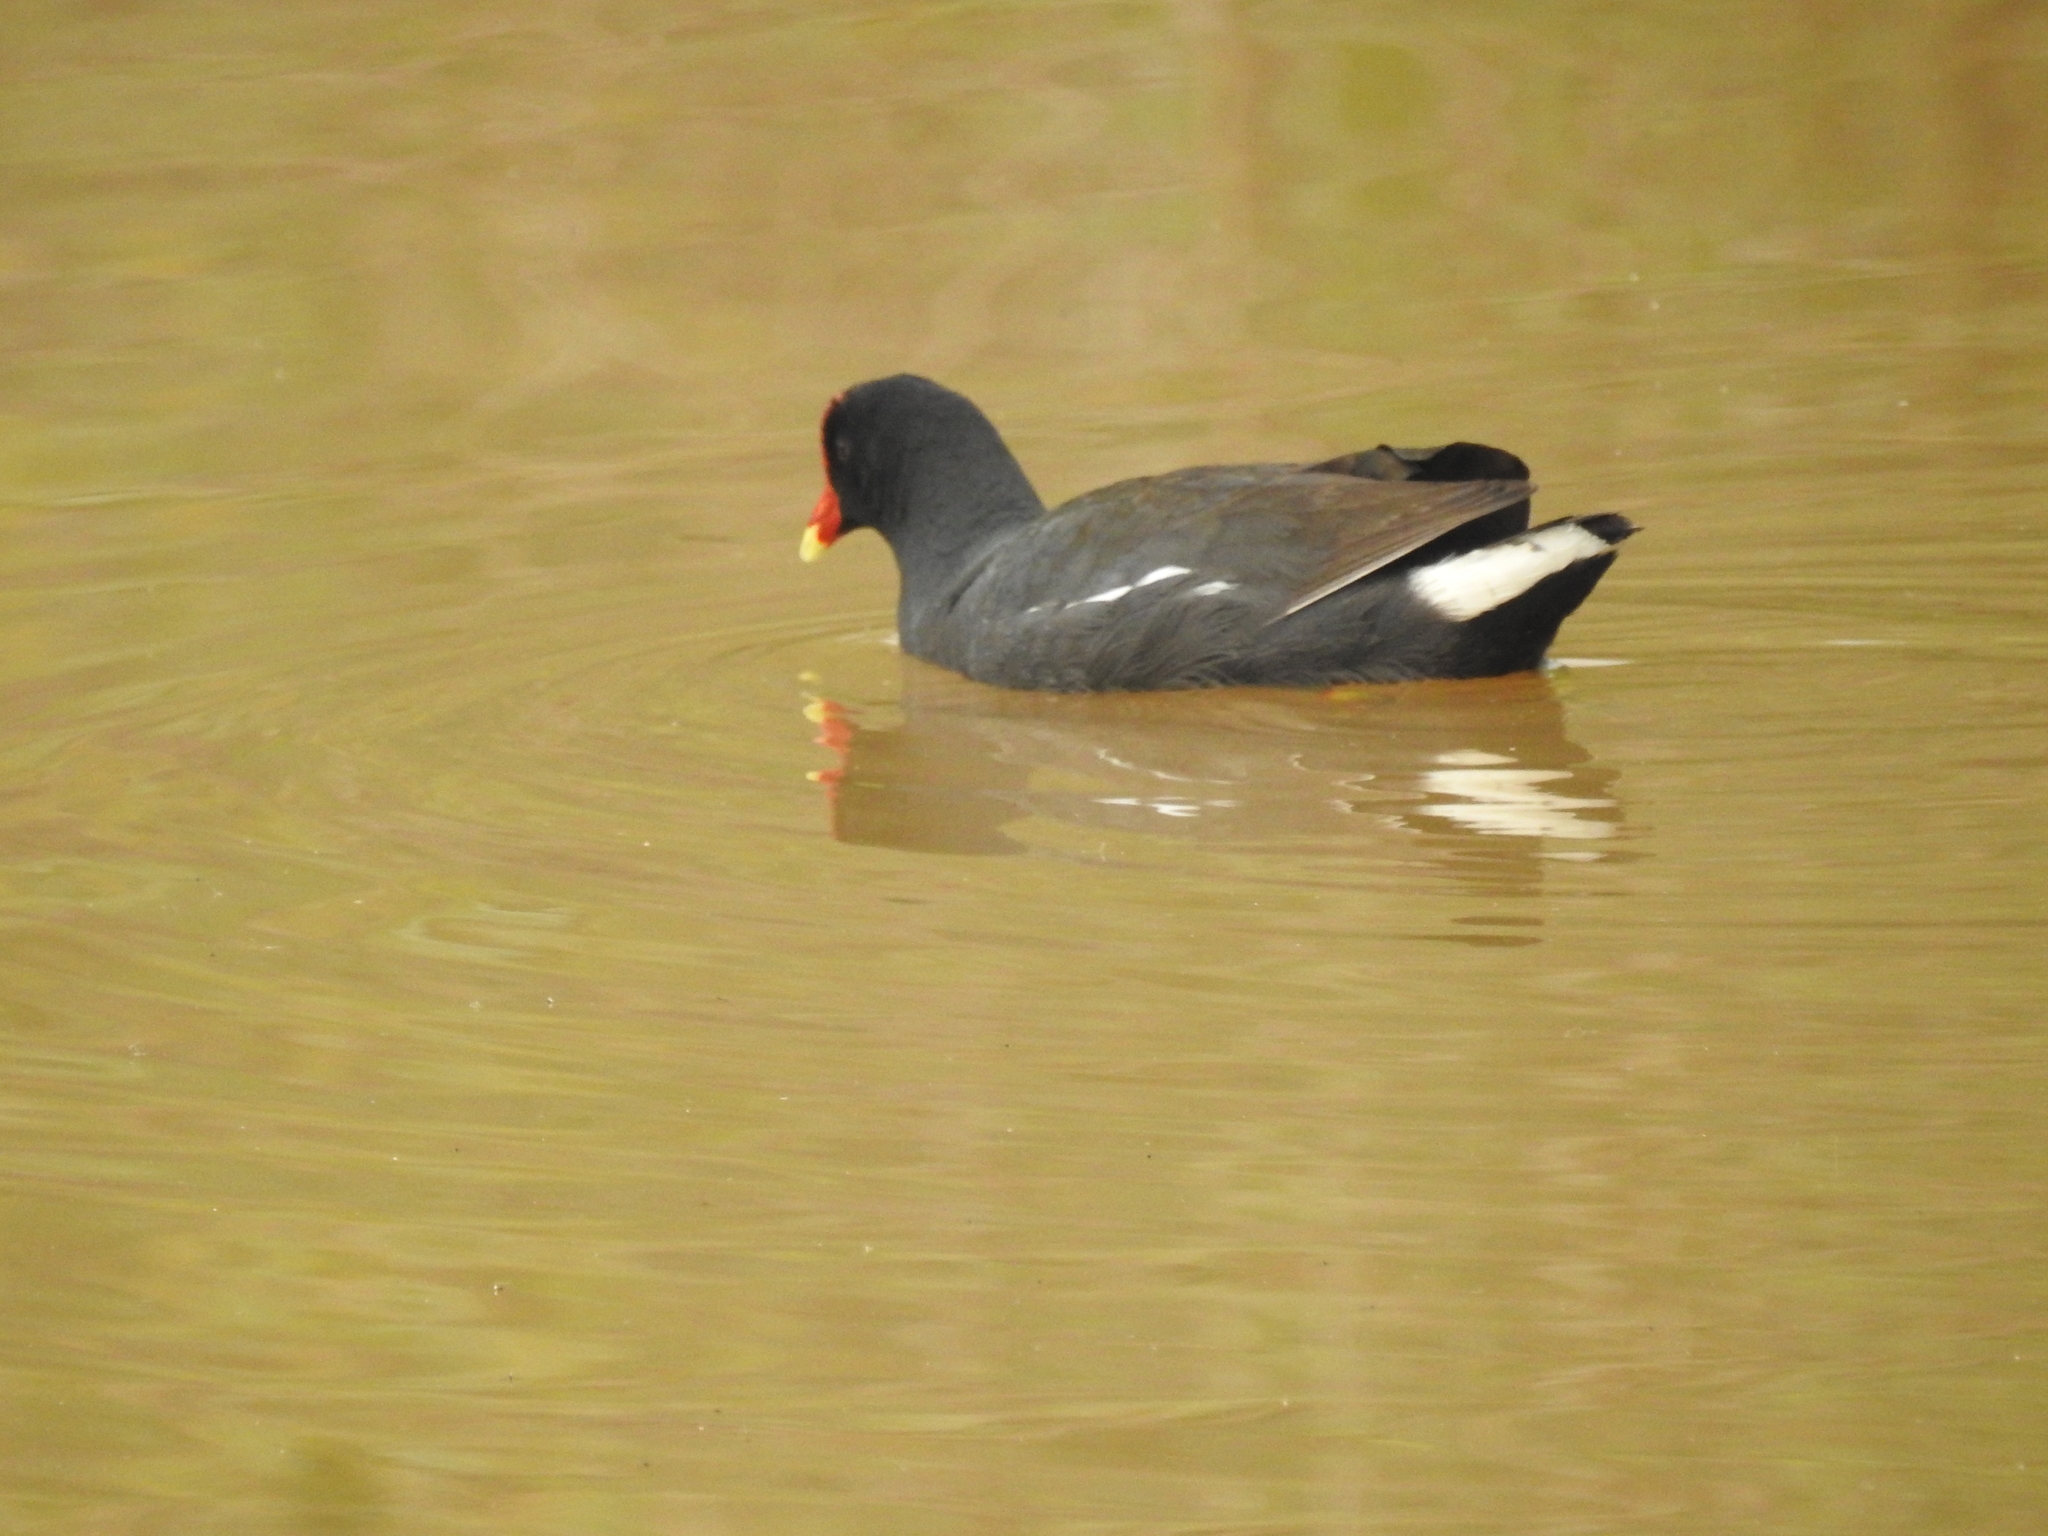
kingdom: Animalia
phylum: Chordata
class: Aves
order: Gruiformes
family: Rallidae
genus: Gallinula
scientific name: Gallinula chloropus
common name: Common moorhen
